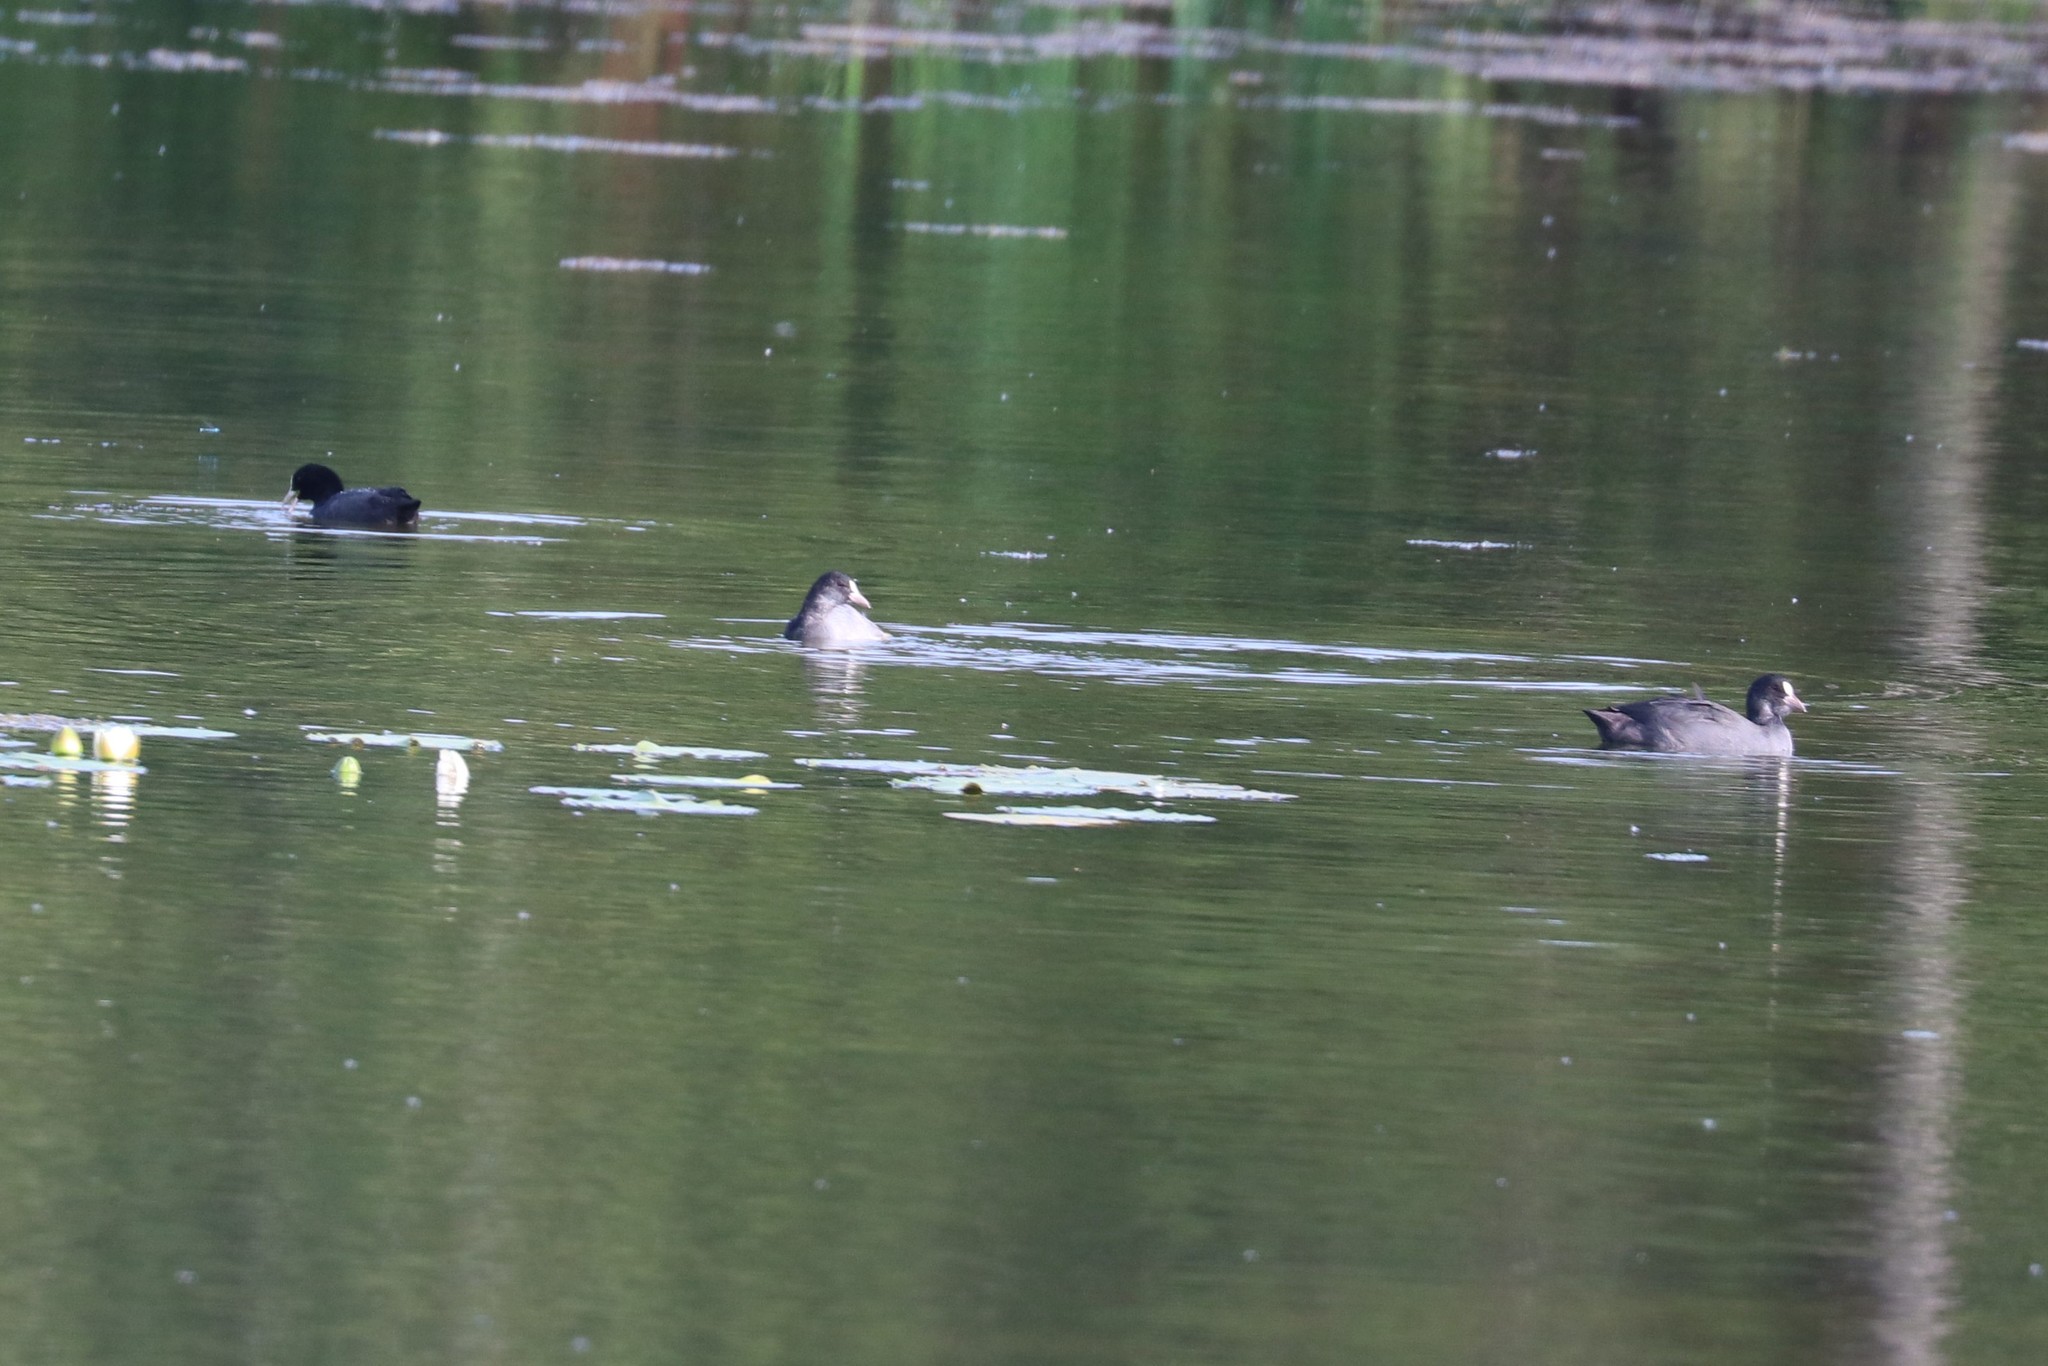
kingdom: Animalia
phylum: Chordata
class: Aves
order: Gruiformes
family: Rallidae
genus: Fulica
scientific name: Fulica atra
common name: Eurasian coot
